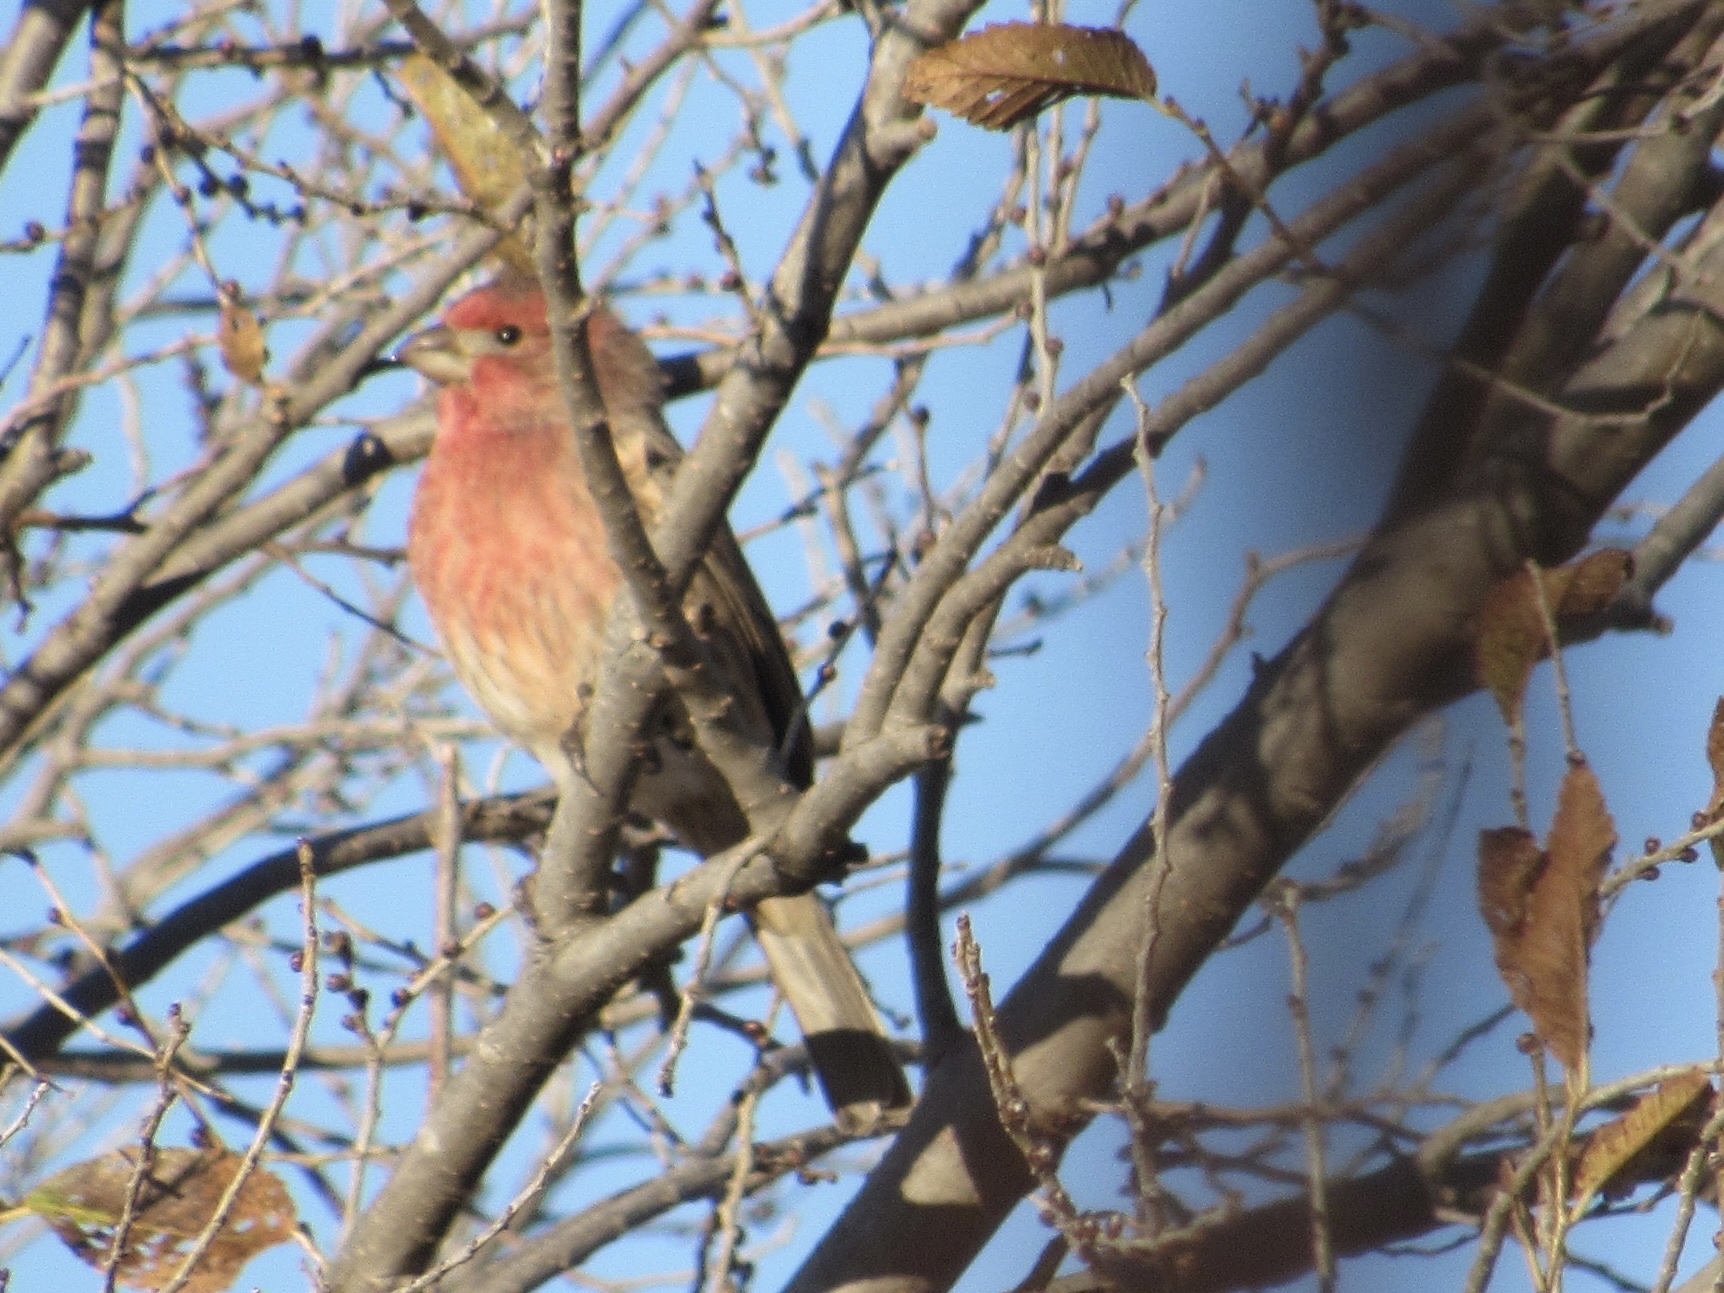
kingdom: Animalia
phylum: Chordata
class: Aves
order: Passeriformes
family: Fringillidae
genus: Haemorhous
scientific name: Haemorhous mexicanus
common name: House finch
